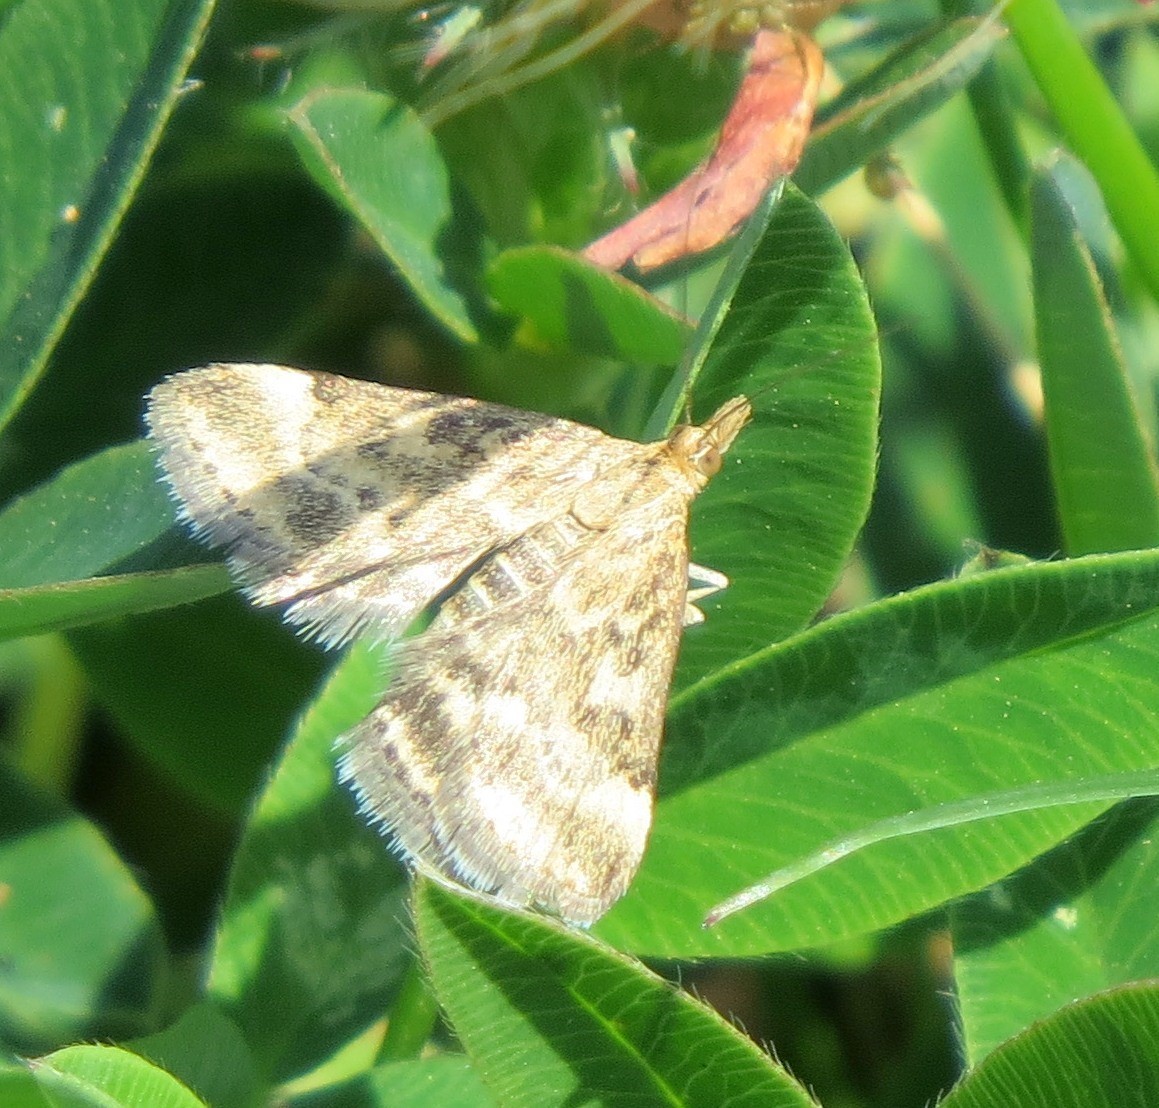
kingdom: Animalia
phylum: Arthropoda
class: Insecta
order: Lepidoptera
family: Crambidae
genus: Pyrausta
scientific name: Pyrausta despicata
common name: Straw-barred pearl
